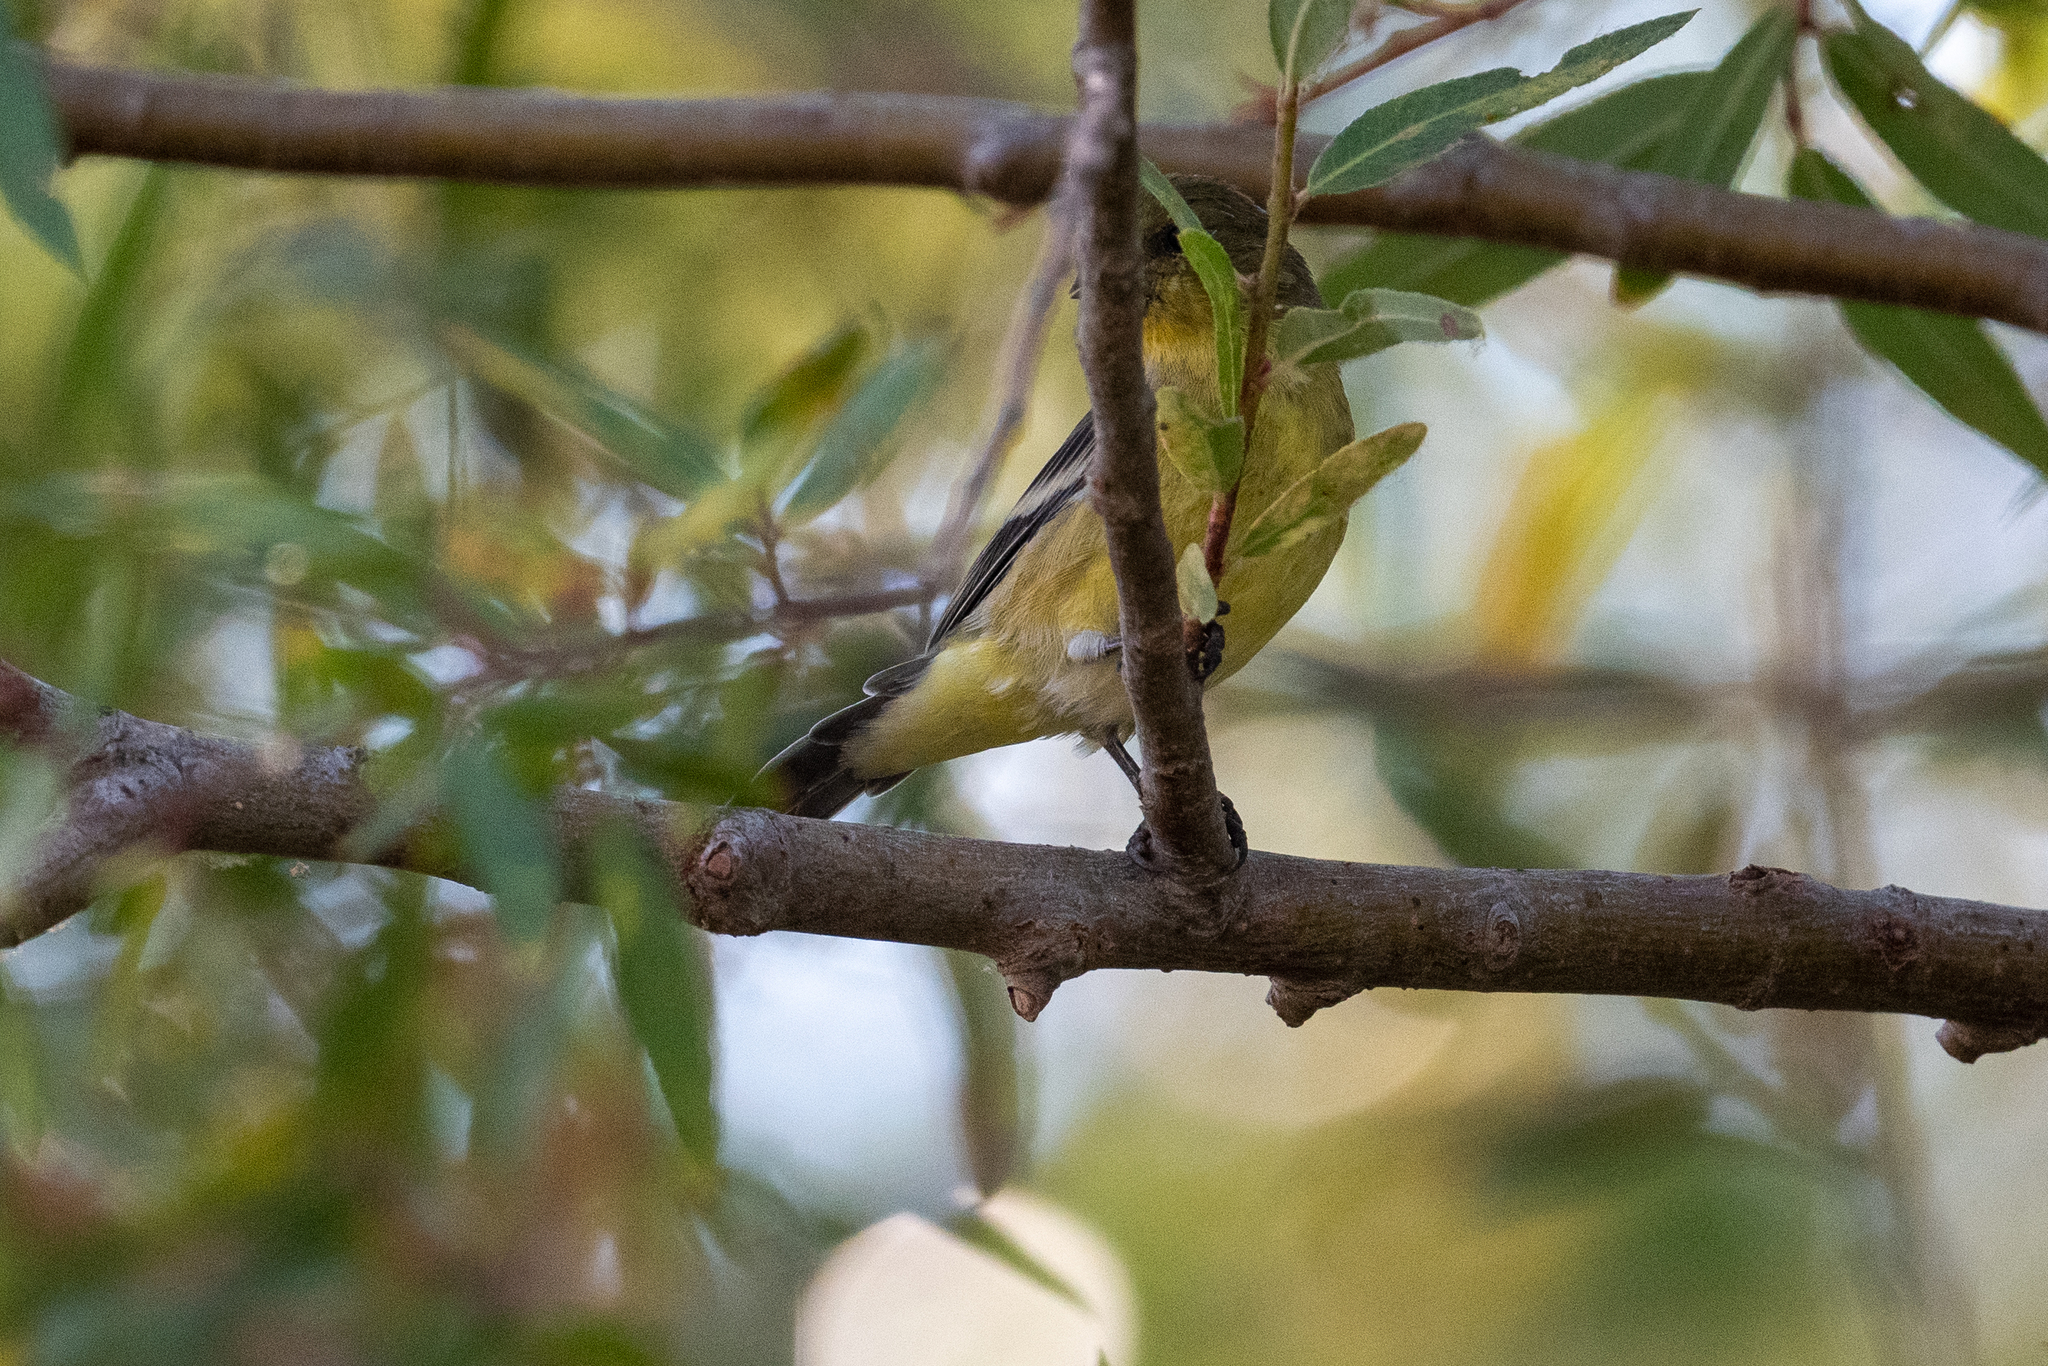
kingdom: Animalia
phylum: Chordata
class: Aves
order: Passeriformes
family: Fringillidae
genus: Spinus
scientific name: Spinus psaltria
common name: Lesser goldfinch
